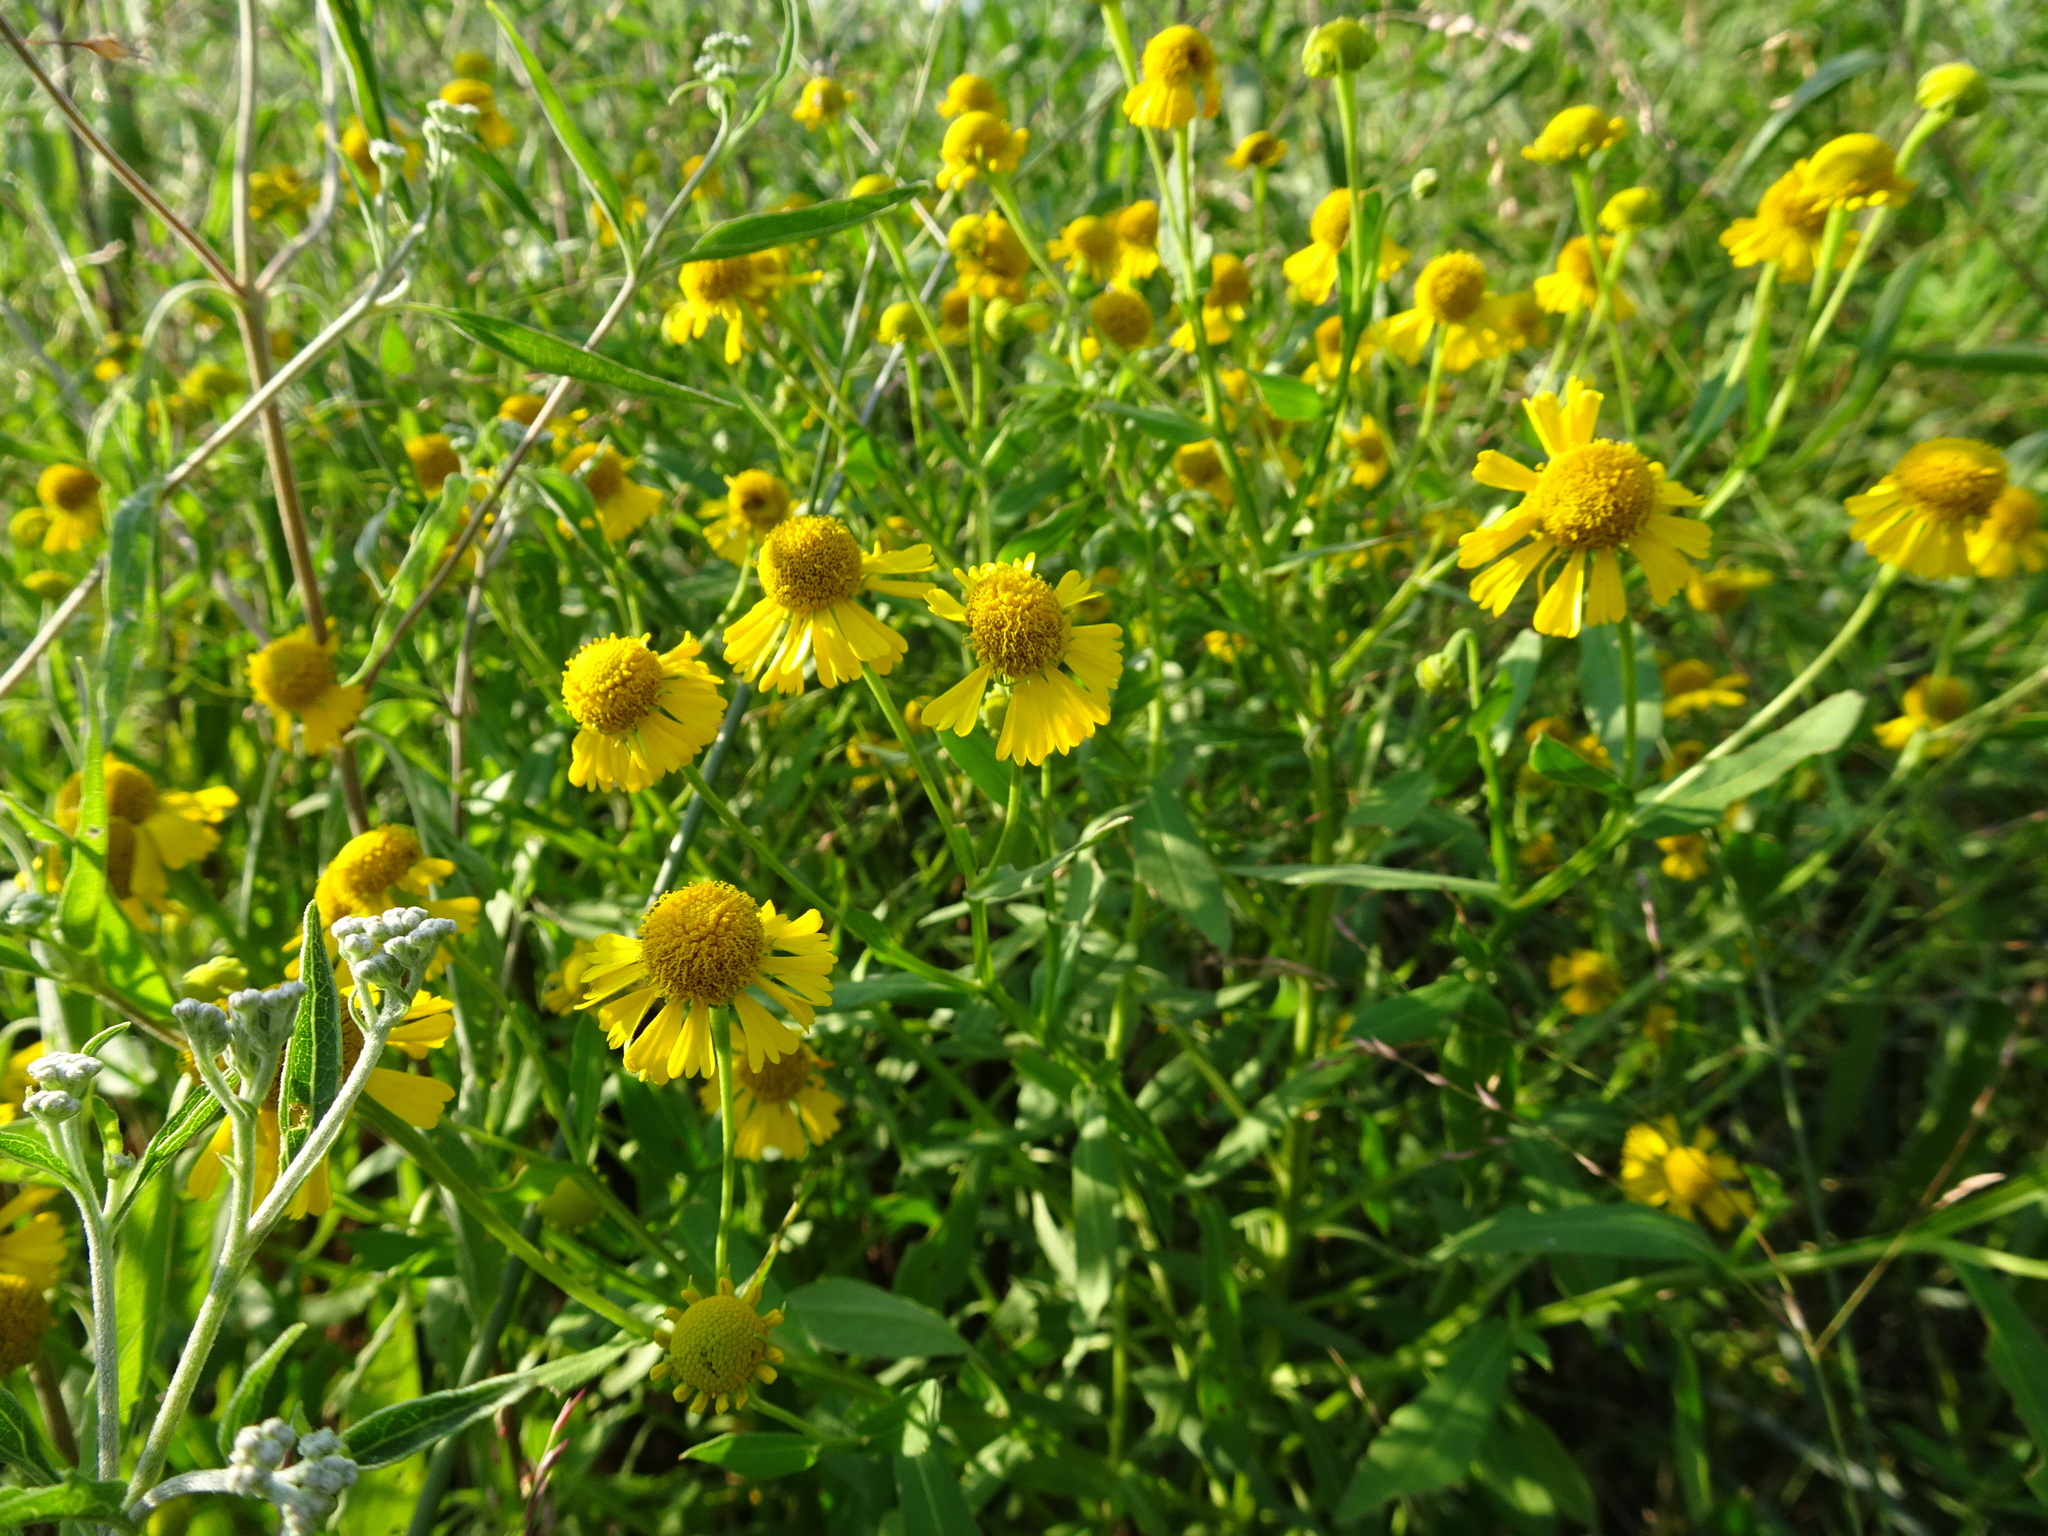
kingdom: Plantae
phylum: Tracheophyta
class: Magnoliopsida
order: Asterales
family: Asteraceae
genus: Helenium
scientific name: Helenium autumnale
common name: Sneezeweed
